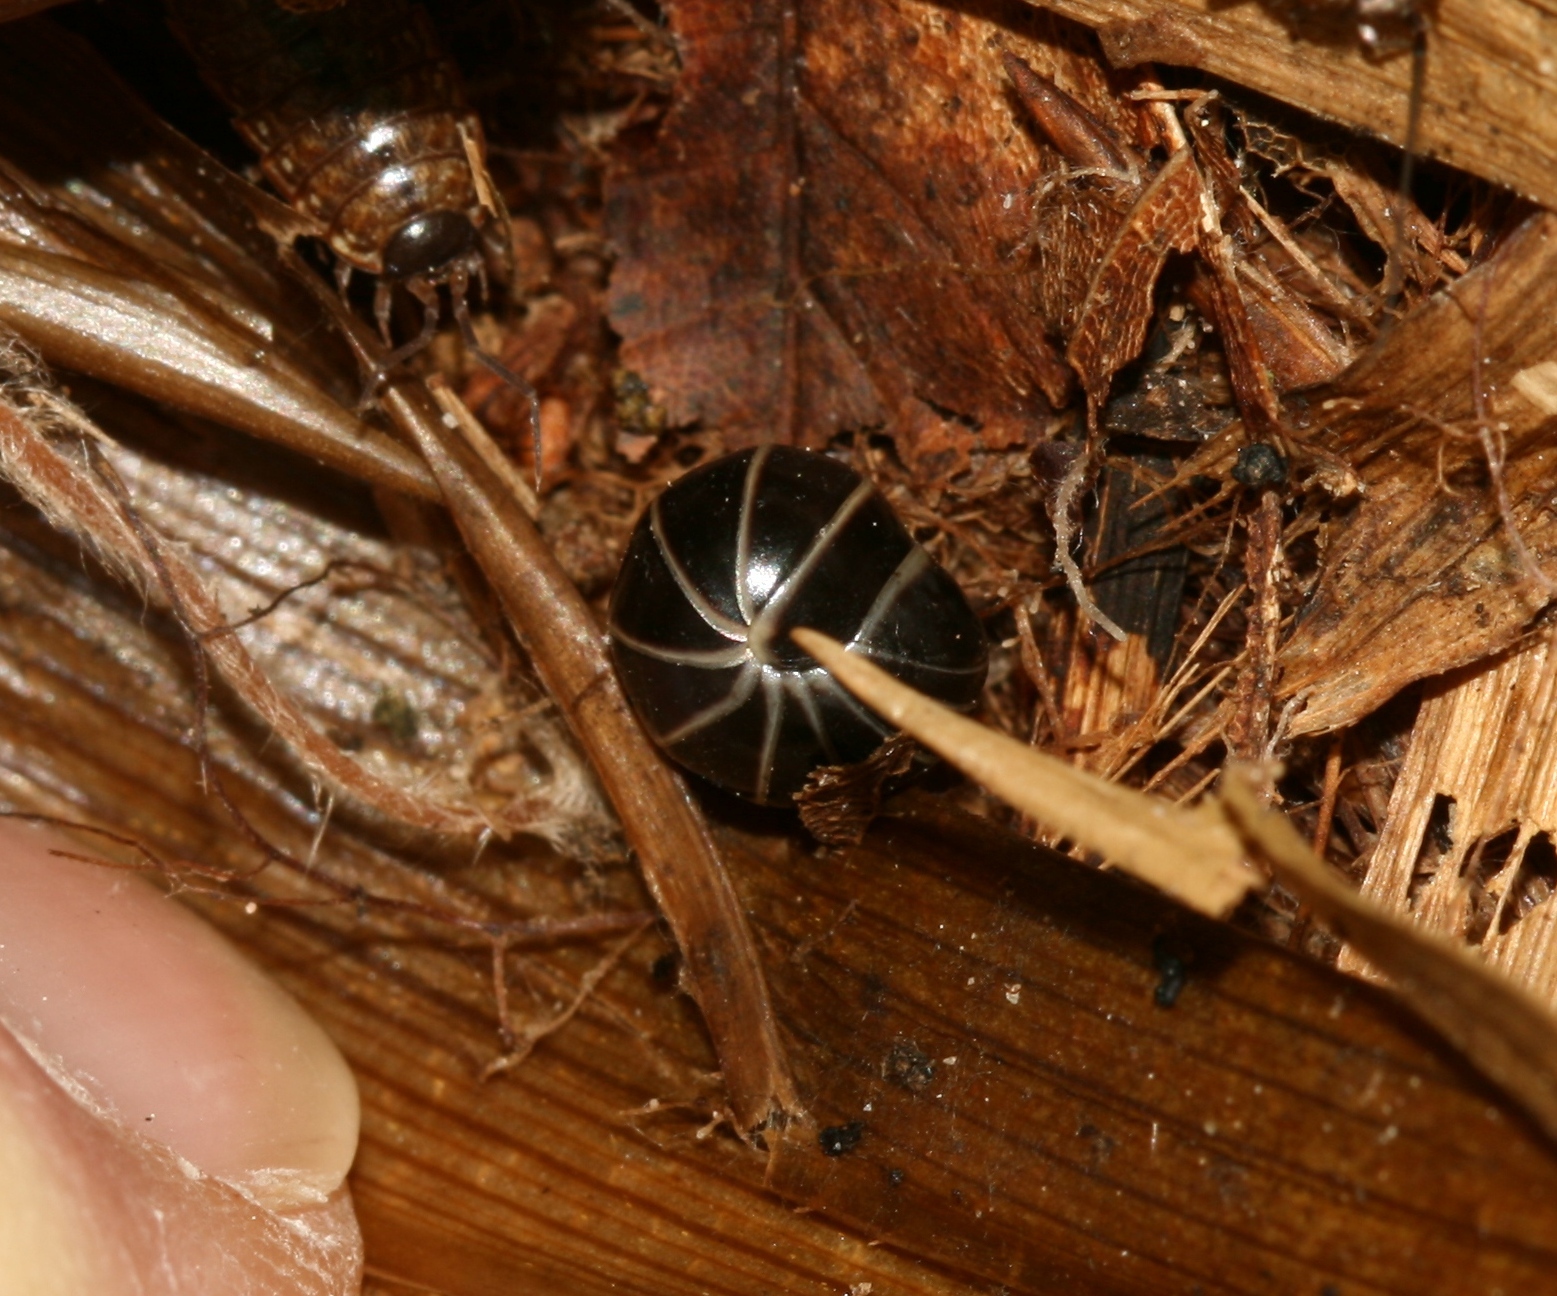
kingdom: Animalia
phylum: Arthropoda
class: Diplopoda
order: Glomerida
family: Glomeridae
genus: Glomeris
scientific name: Glomeris marginata
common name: Bordered pill millipede
